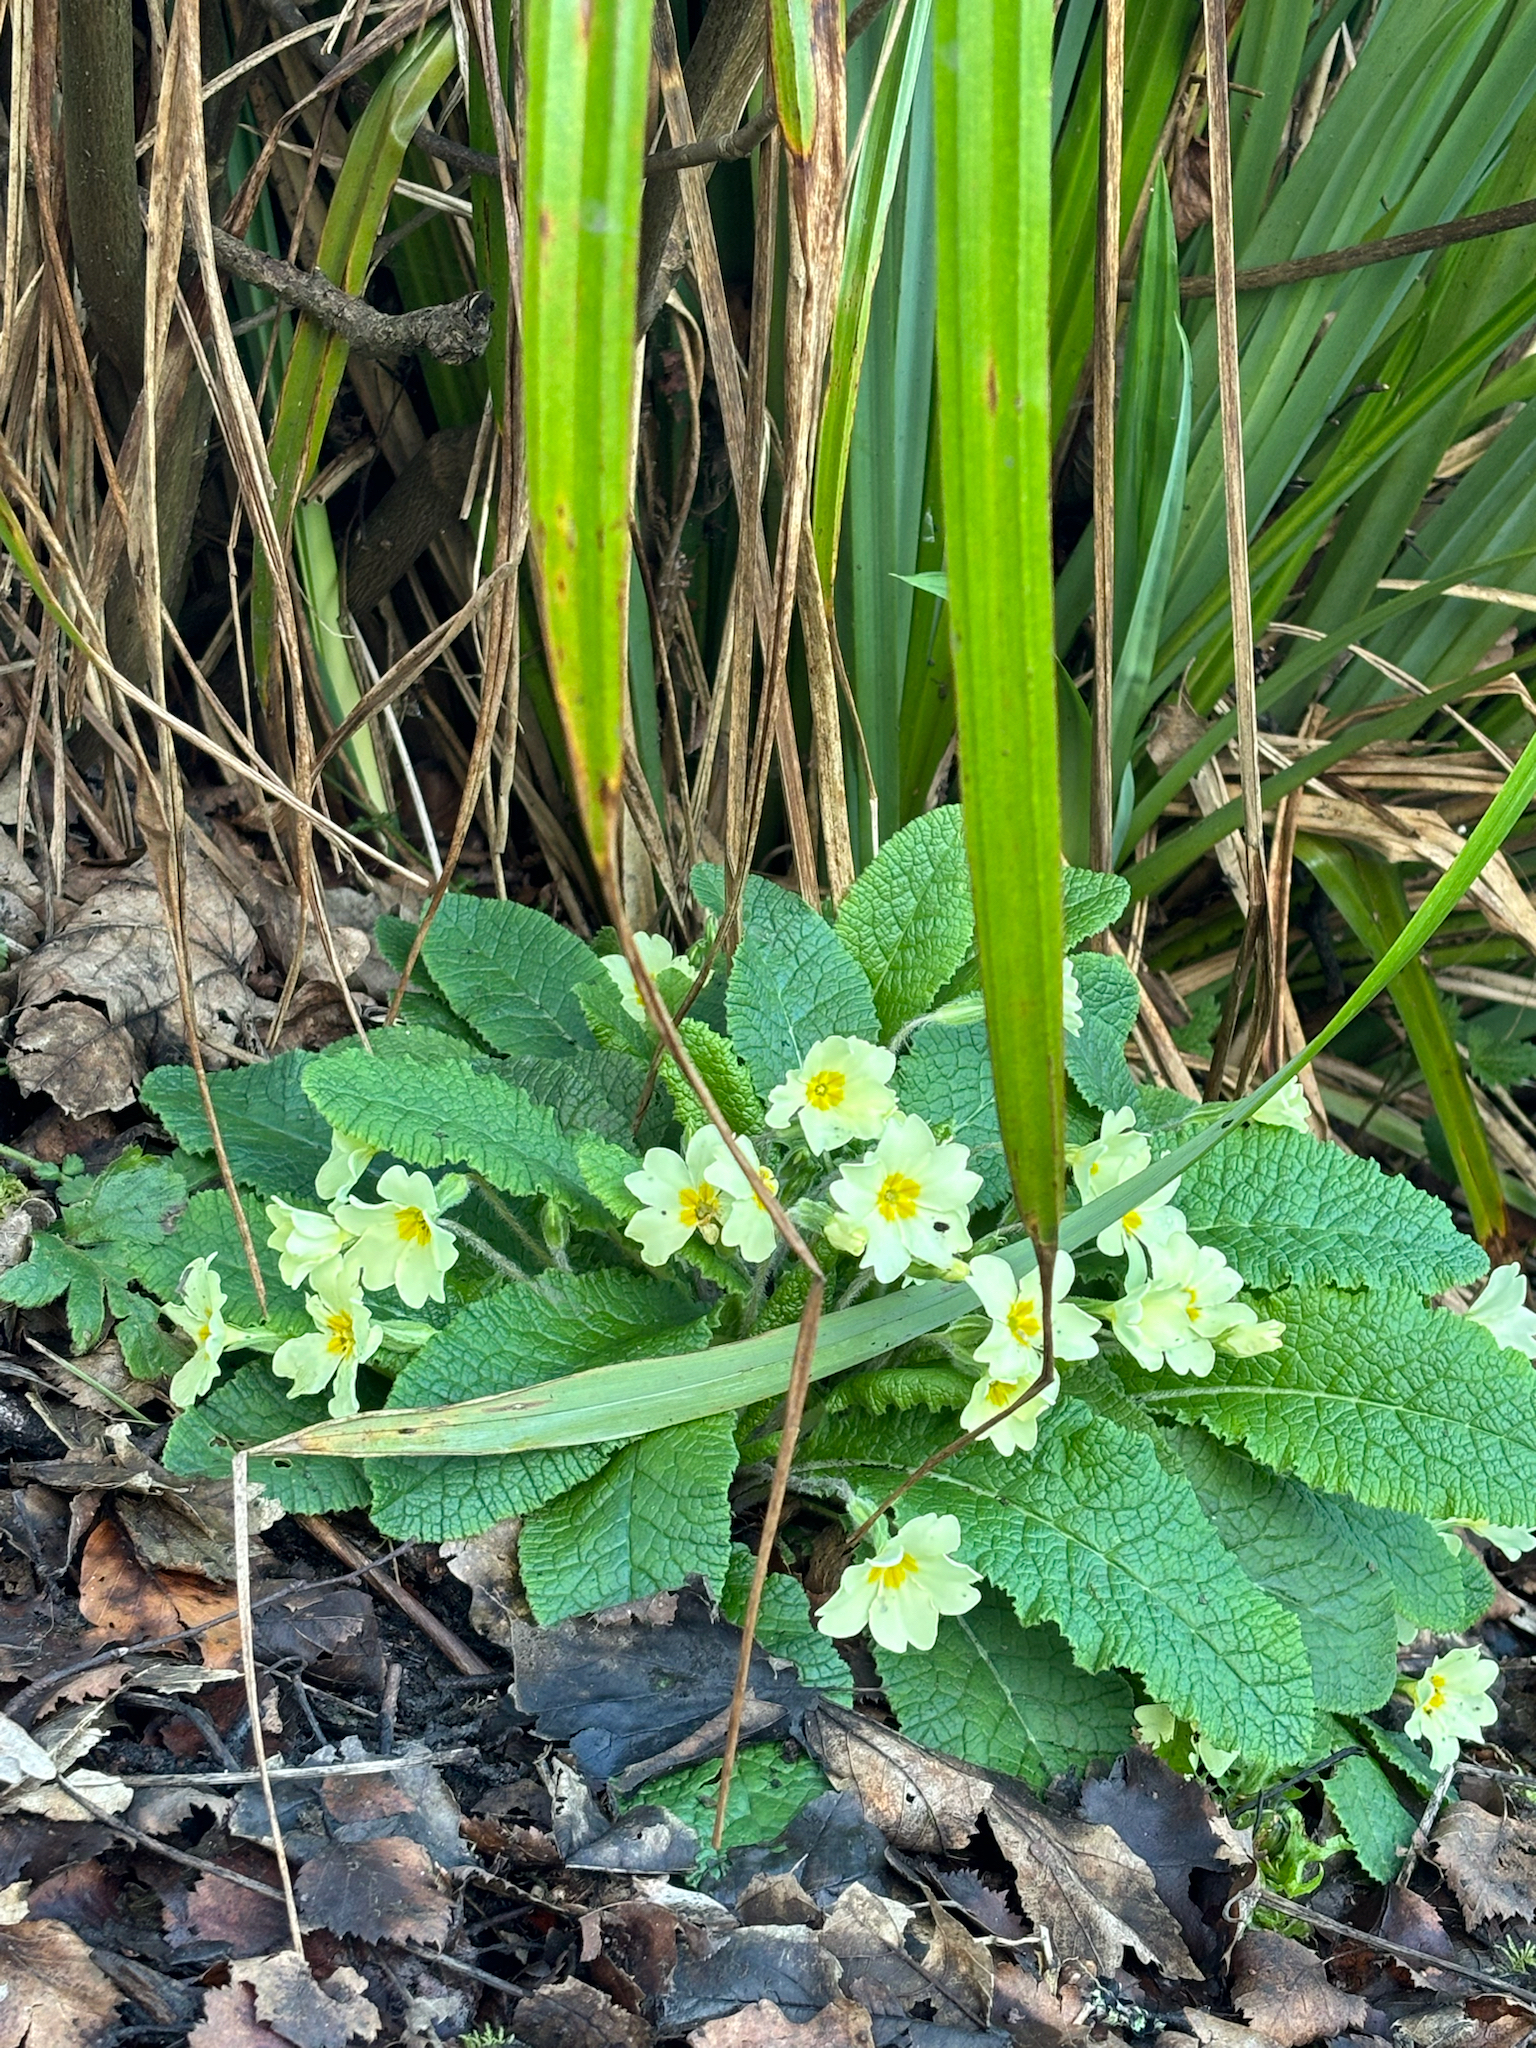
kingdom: Plantae
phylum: Tracheophyta
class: Magnoliopsida
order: Ericales
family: Primulaceae
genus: Primula
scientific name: Primula vulgaris
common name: Primrose
